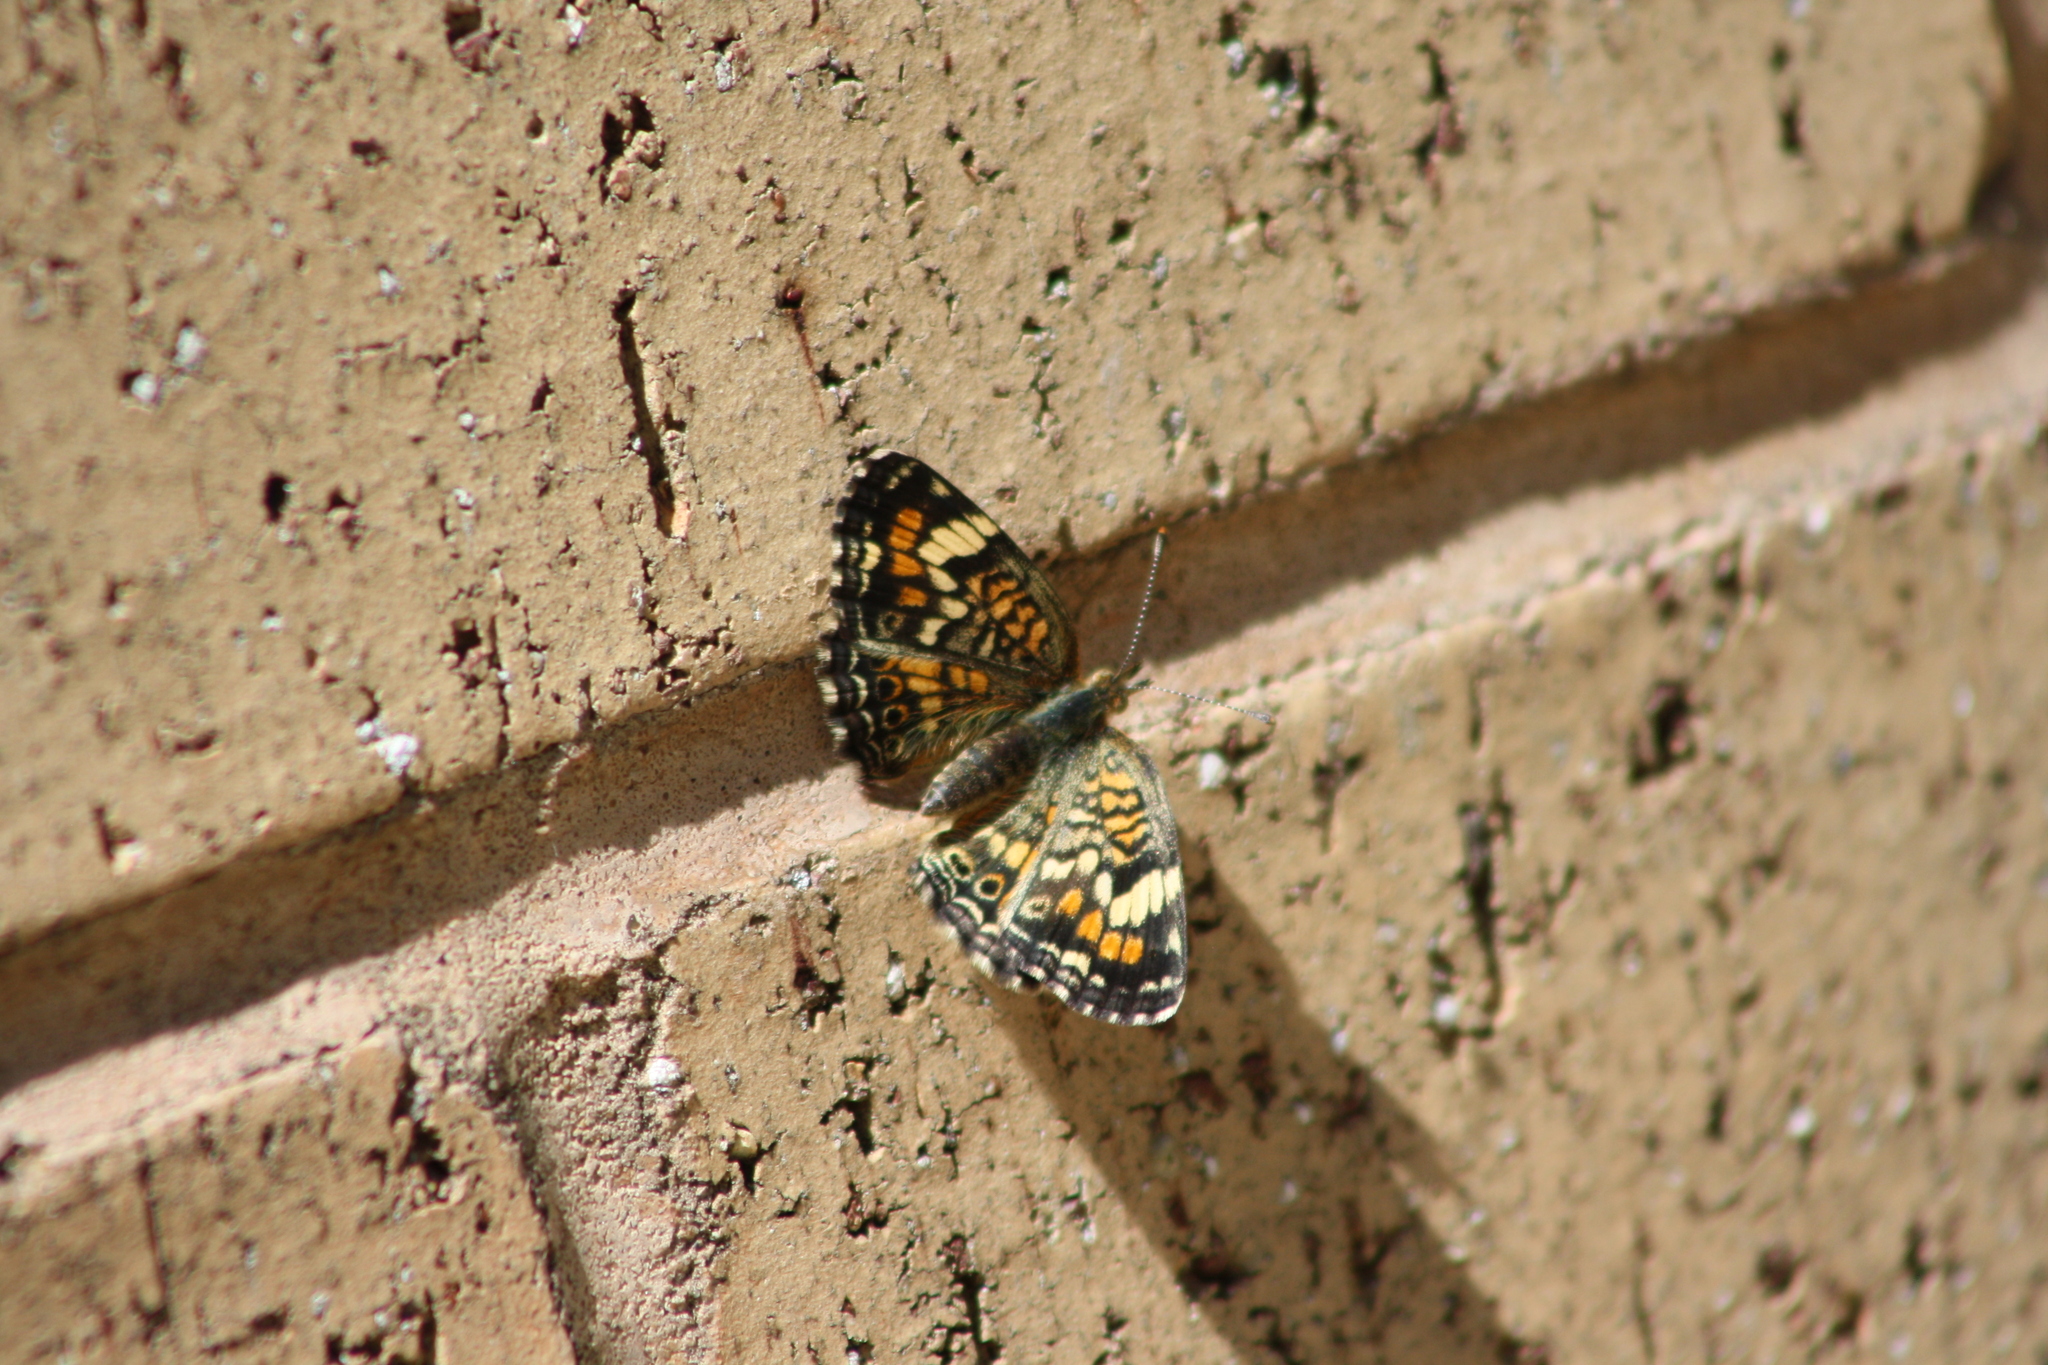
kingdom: Animalia
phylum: Arthropoda
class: Insecta
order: Lepidoptera
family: Nymphalidae
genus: Phyciodes
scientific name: Phyciodes phaon
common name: Phaon crescent
